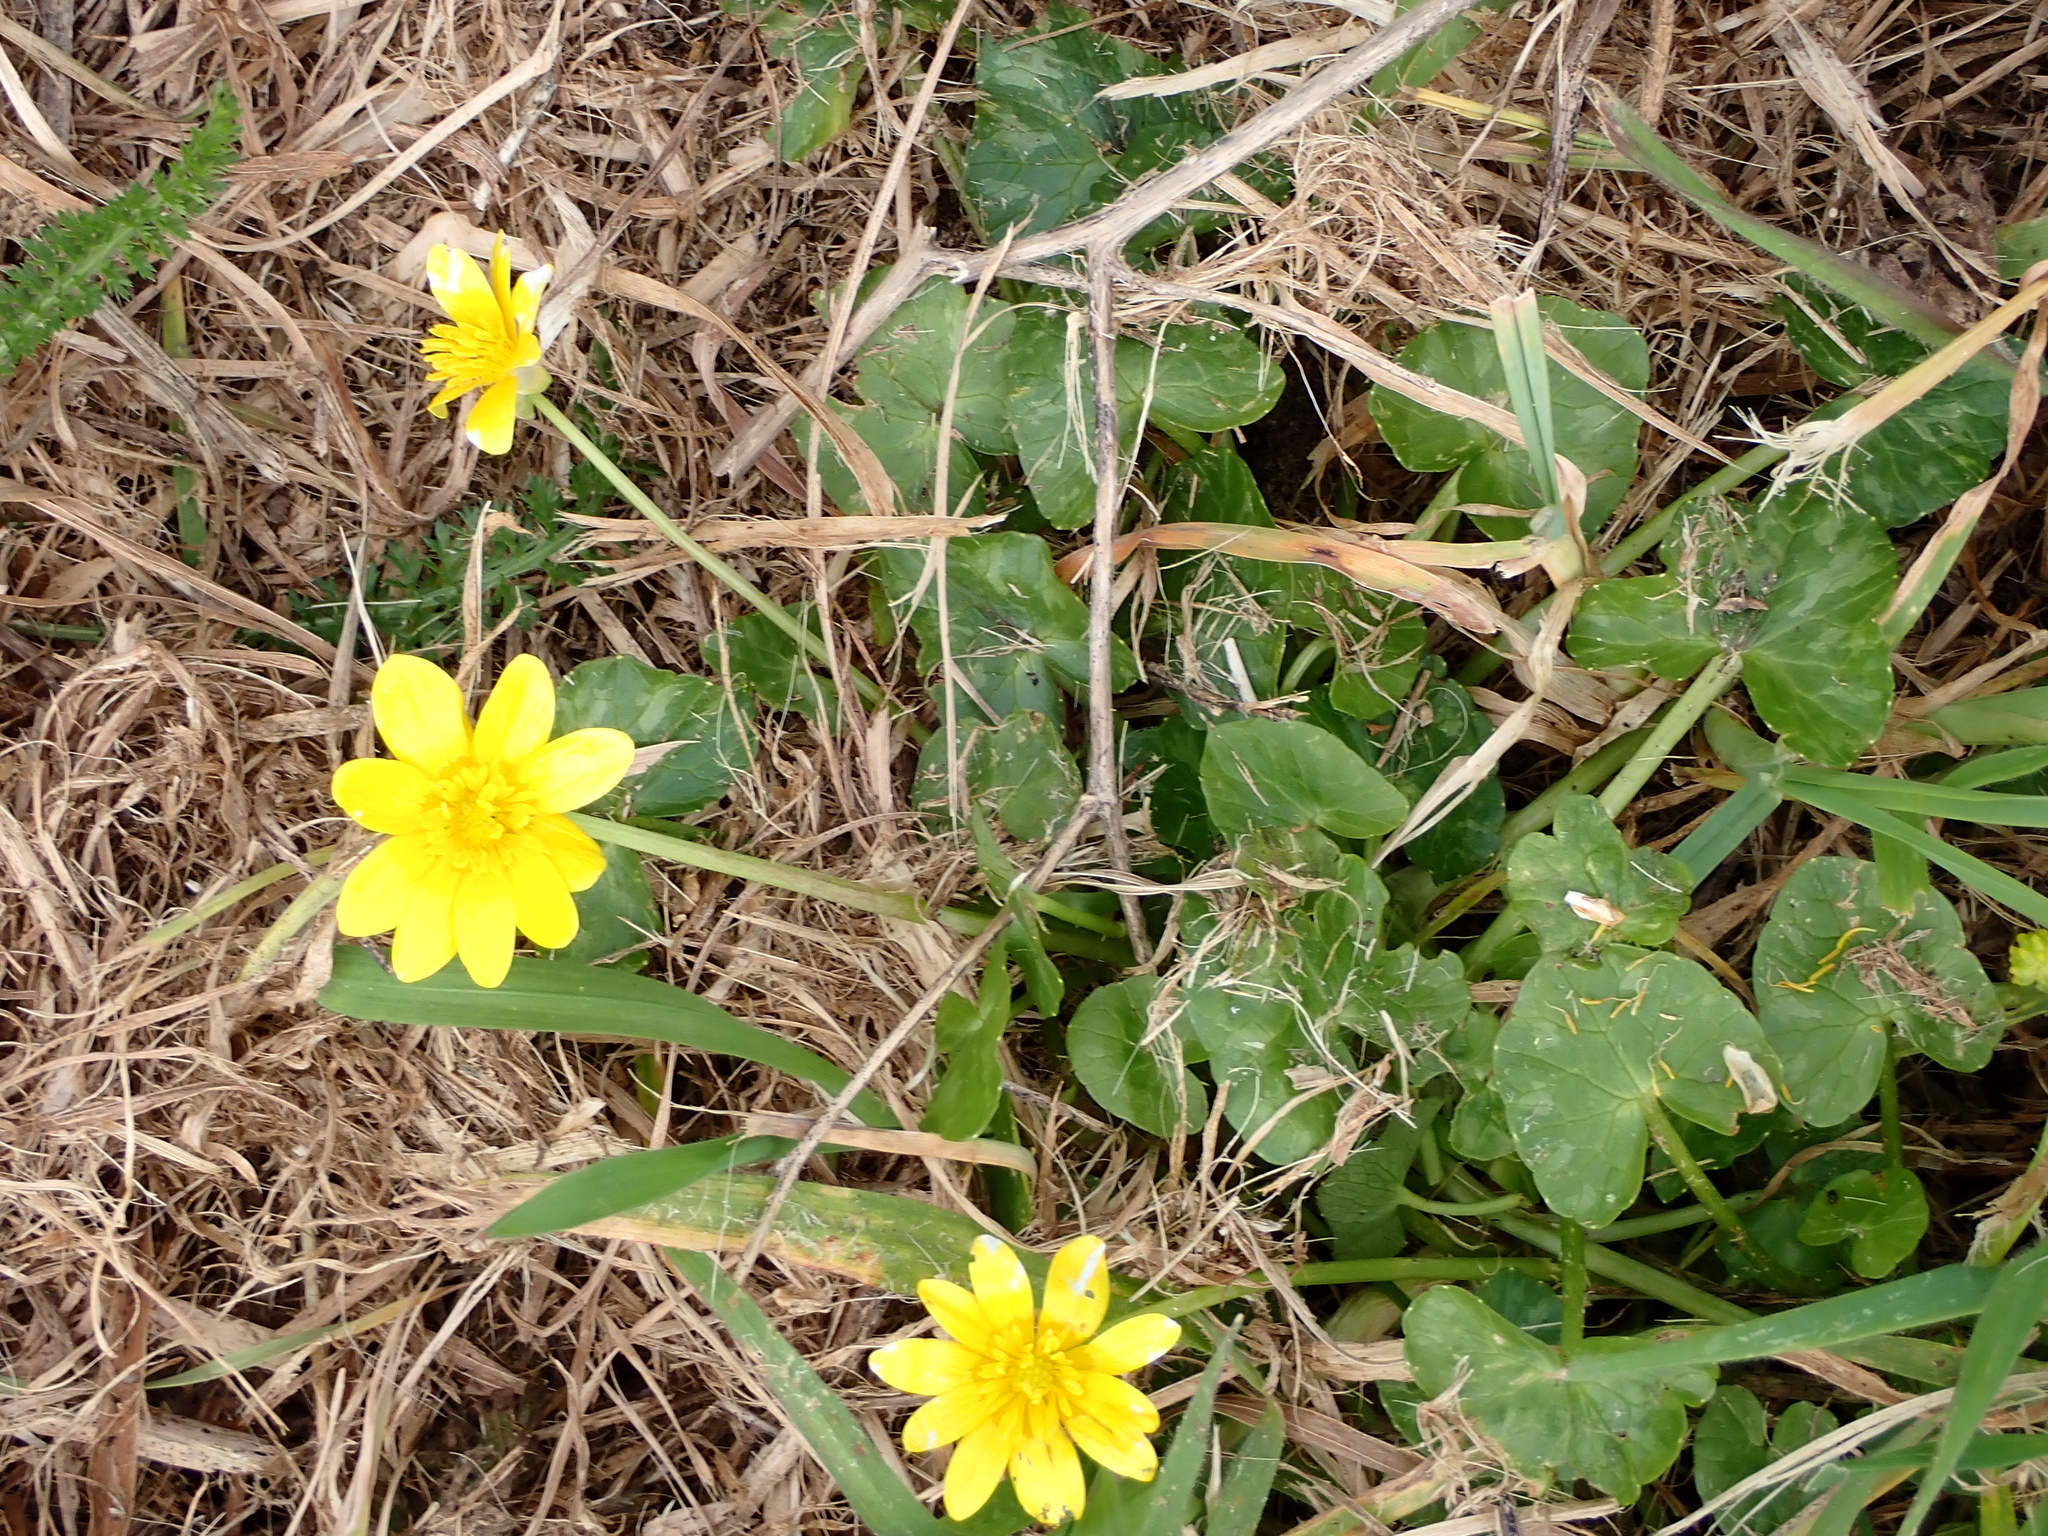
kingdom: Plantae
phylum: Tracheophyta
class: Magnoliopsida
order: Ranunculales
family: Ranunculaceae
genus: Ficaria
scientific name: Ficaria verna
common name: Lesser celandine
